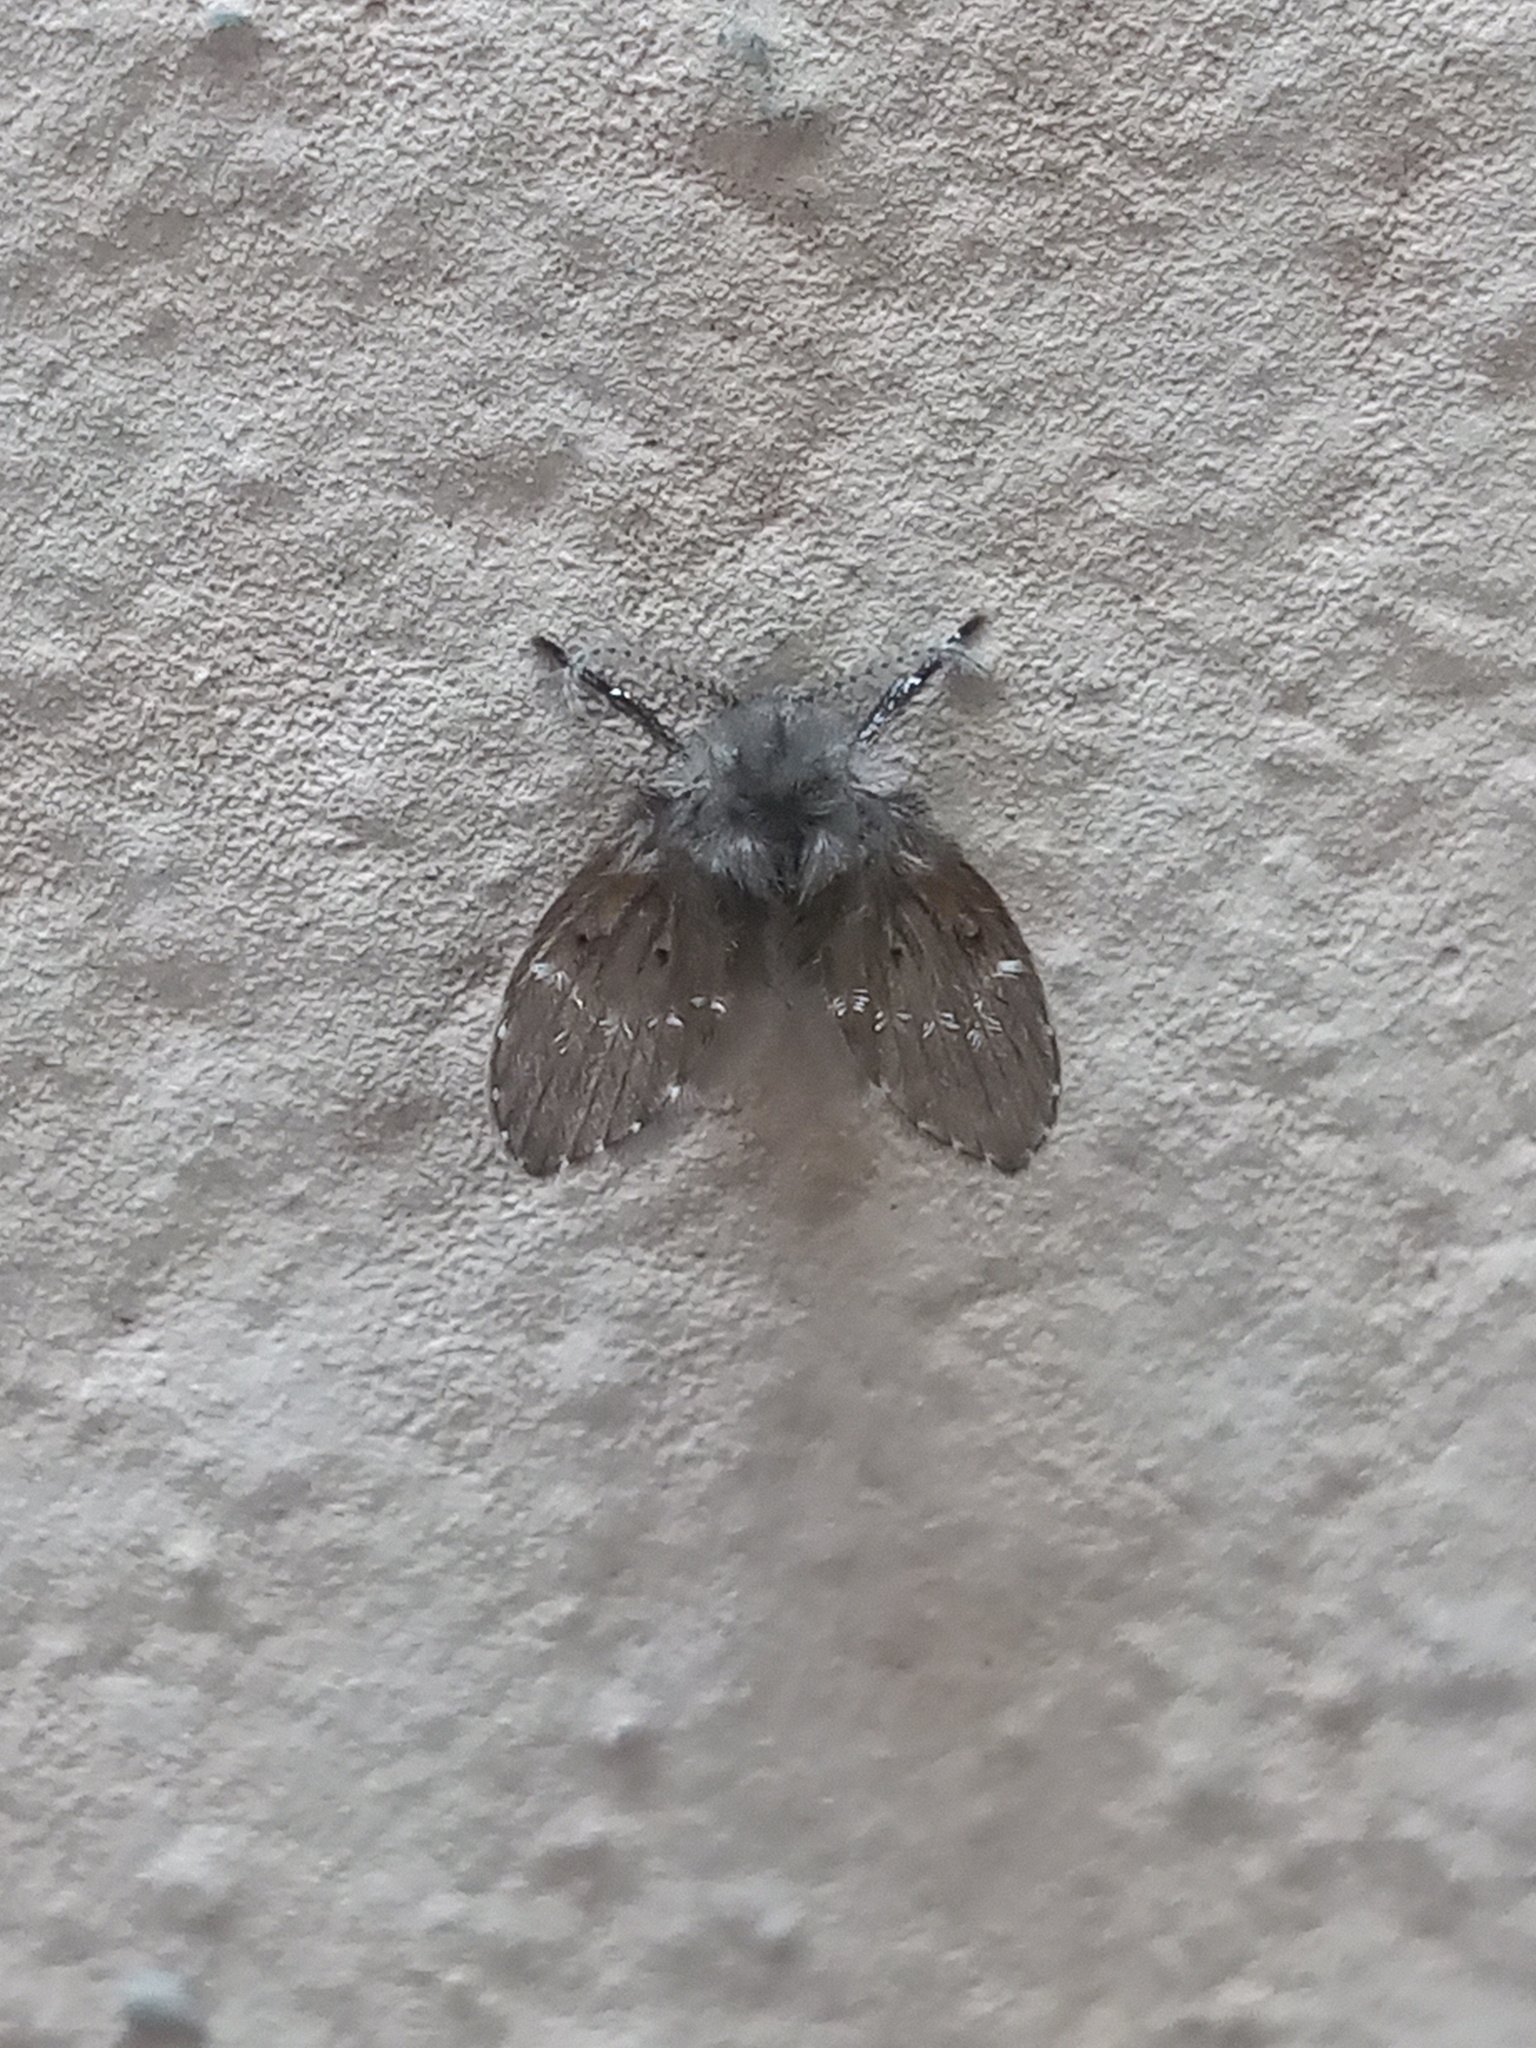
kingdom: Animalia
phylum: Arthropoda
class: Insecta
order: Diptera
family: Psychodidae
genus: Clogmia
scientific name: Clogmia albipunctatus
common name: White-spotted moth fly
